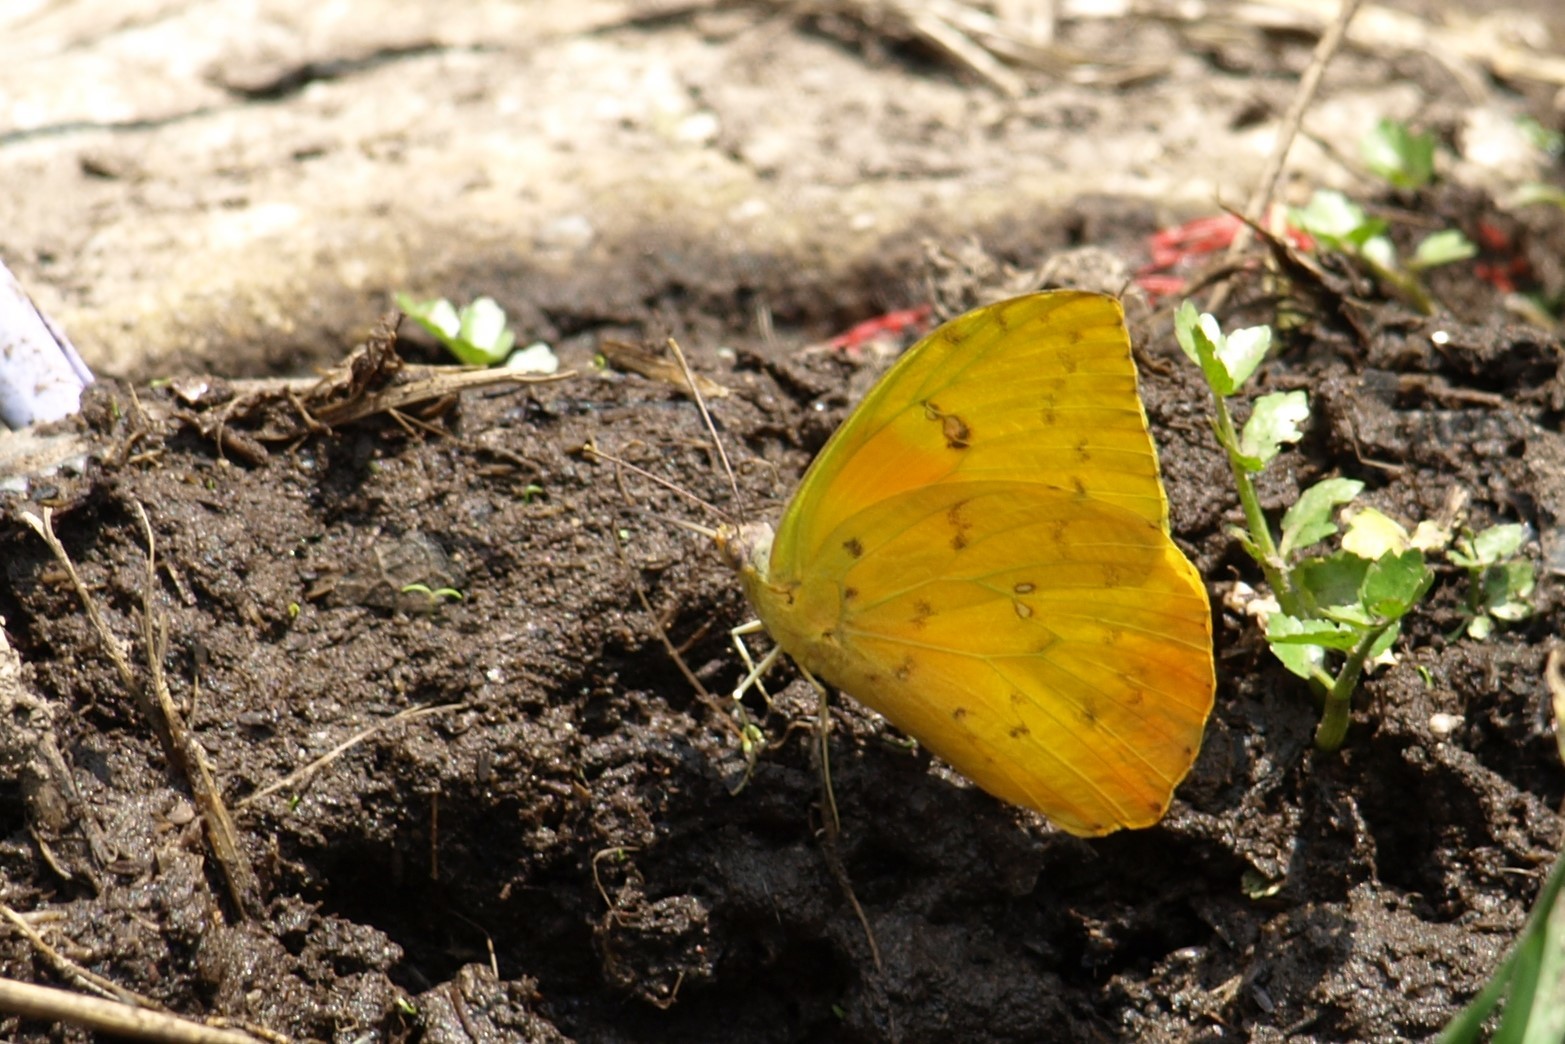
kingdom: Animalia
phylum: Arthropoda
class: Insecta
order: Lepidoptera
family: Pieridae
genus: Phoebis
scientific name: Phoebis philea
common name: Orange-barred giant sulphur
